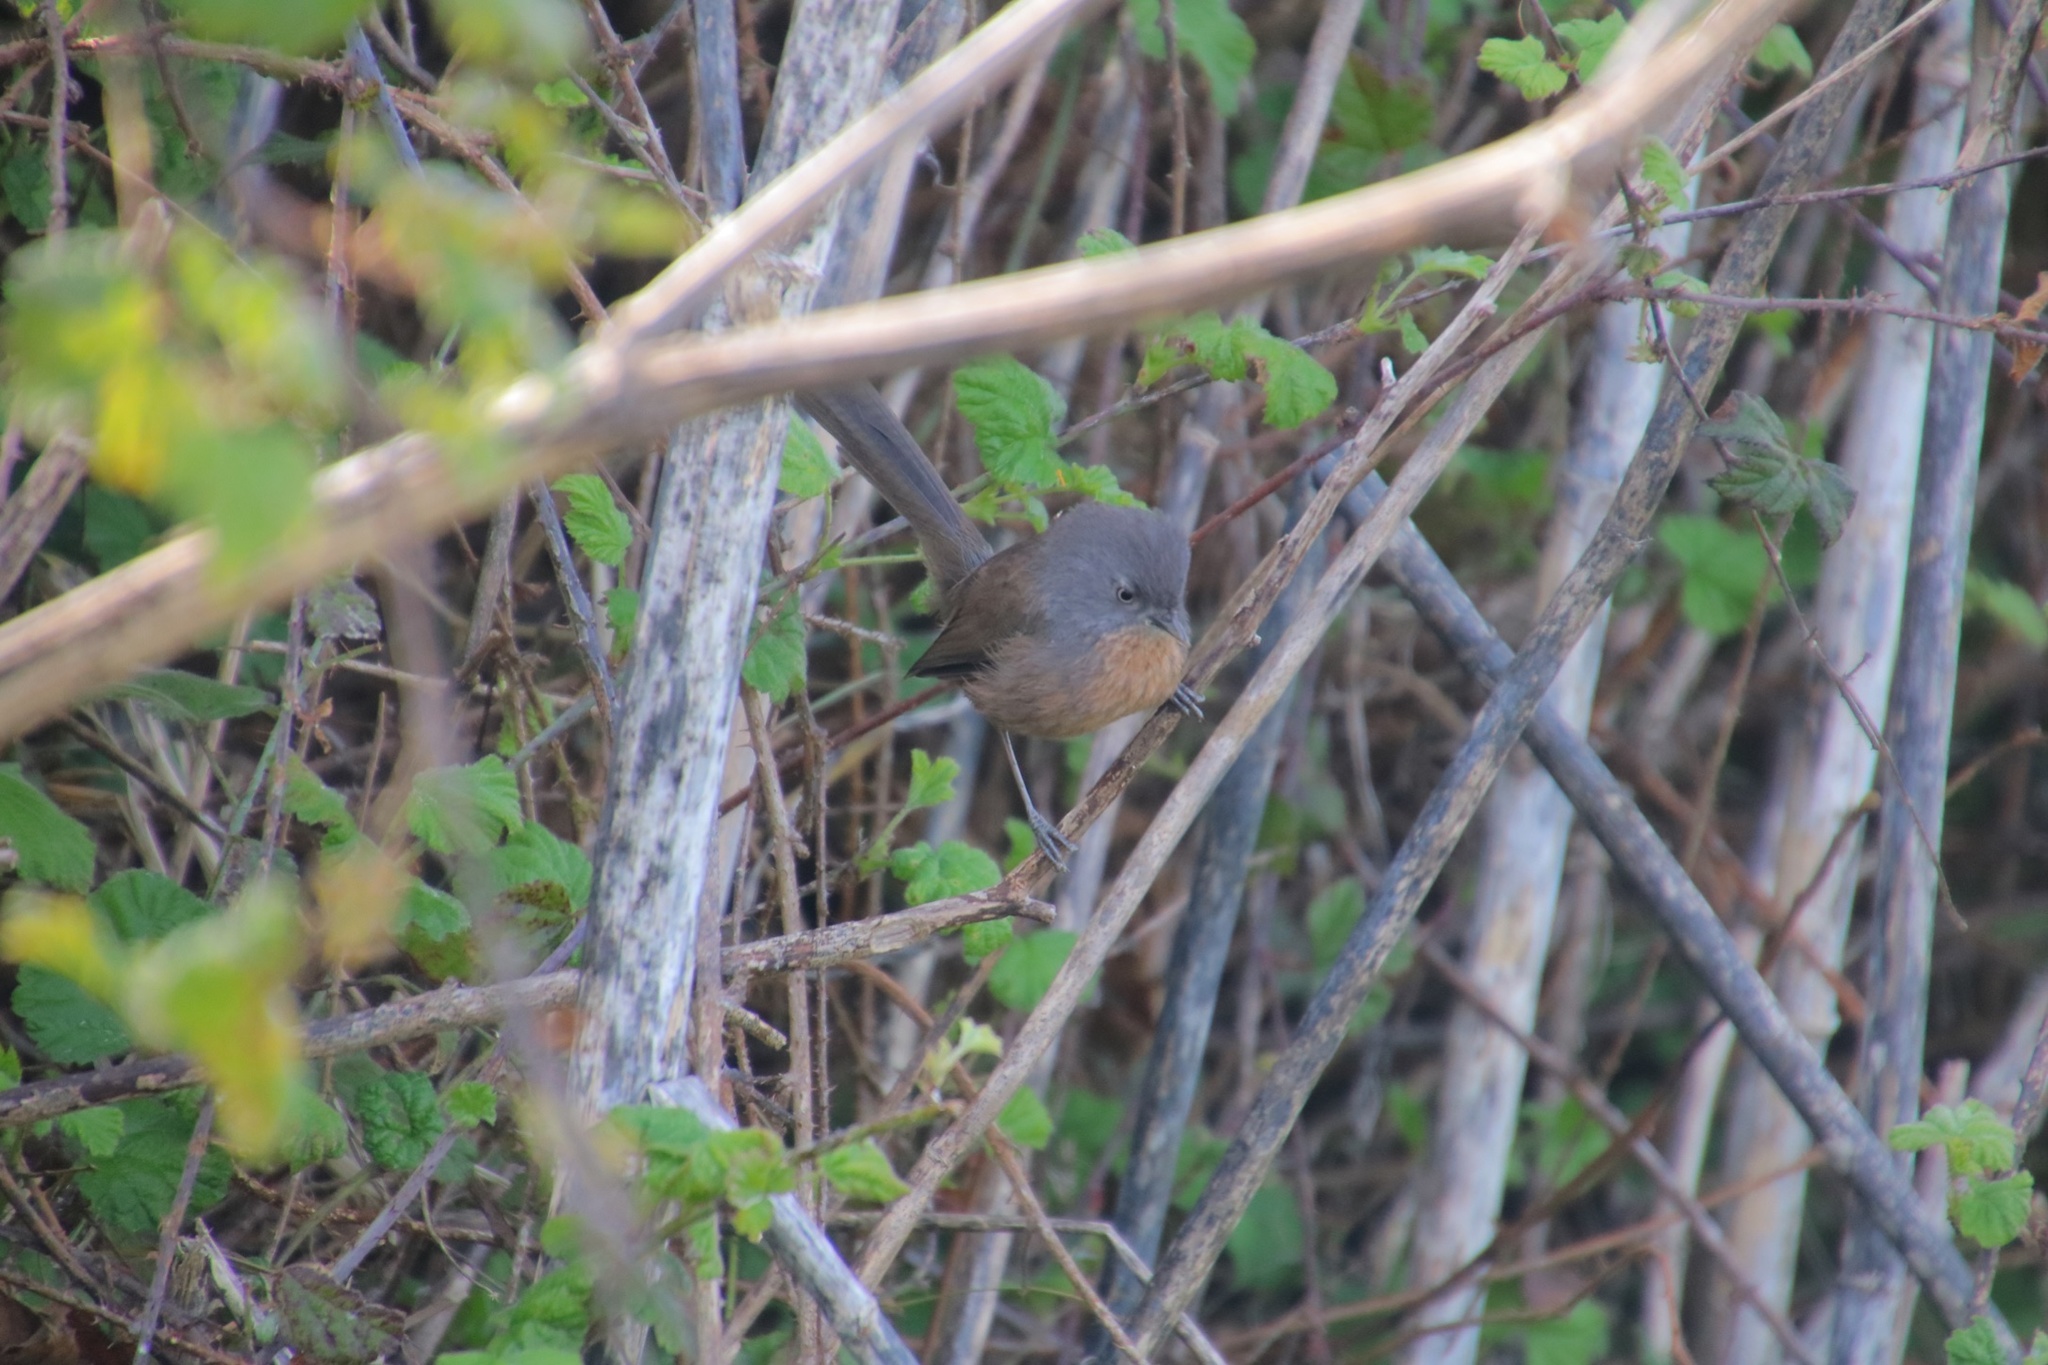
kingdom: Animalia
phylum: Chordata
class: Aves
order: Passeriformes
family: Sylviidae
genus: Chamaea
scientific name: Chamaea fasciata
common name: Wrentit
